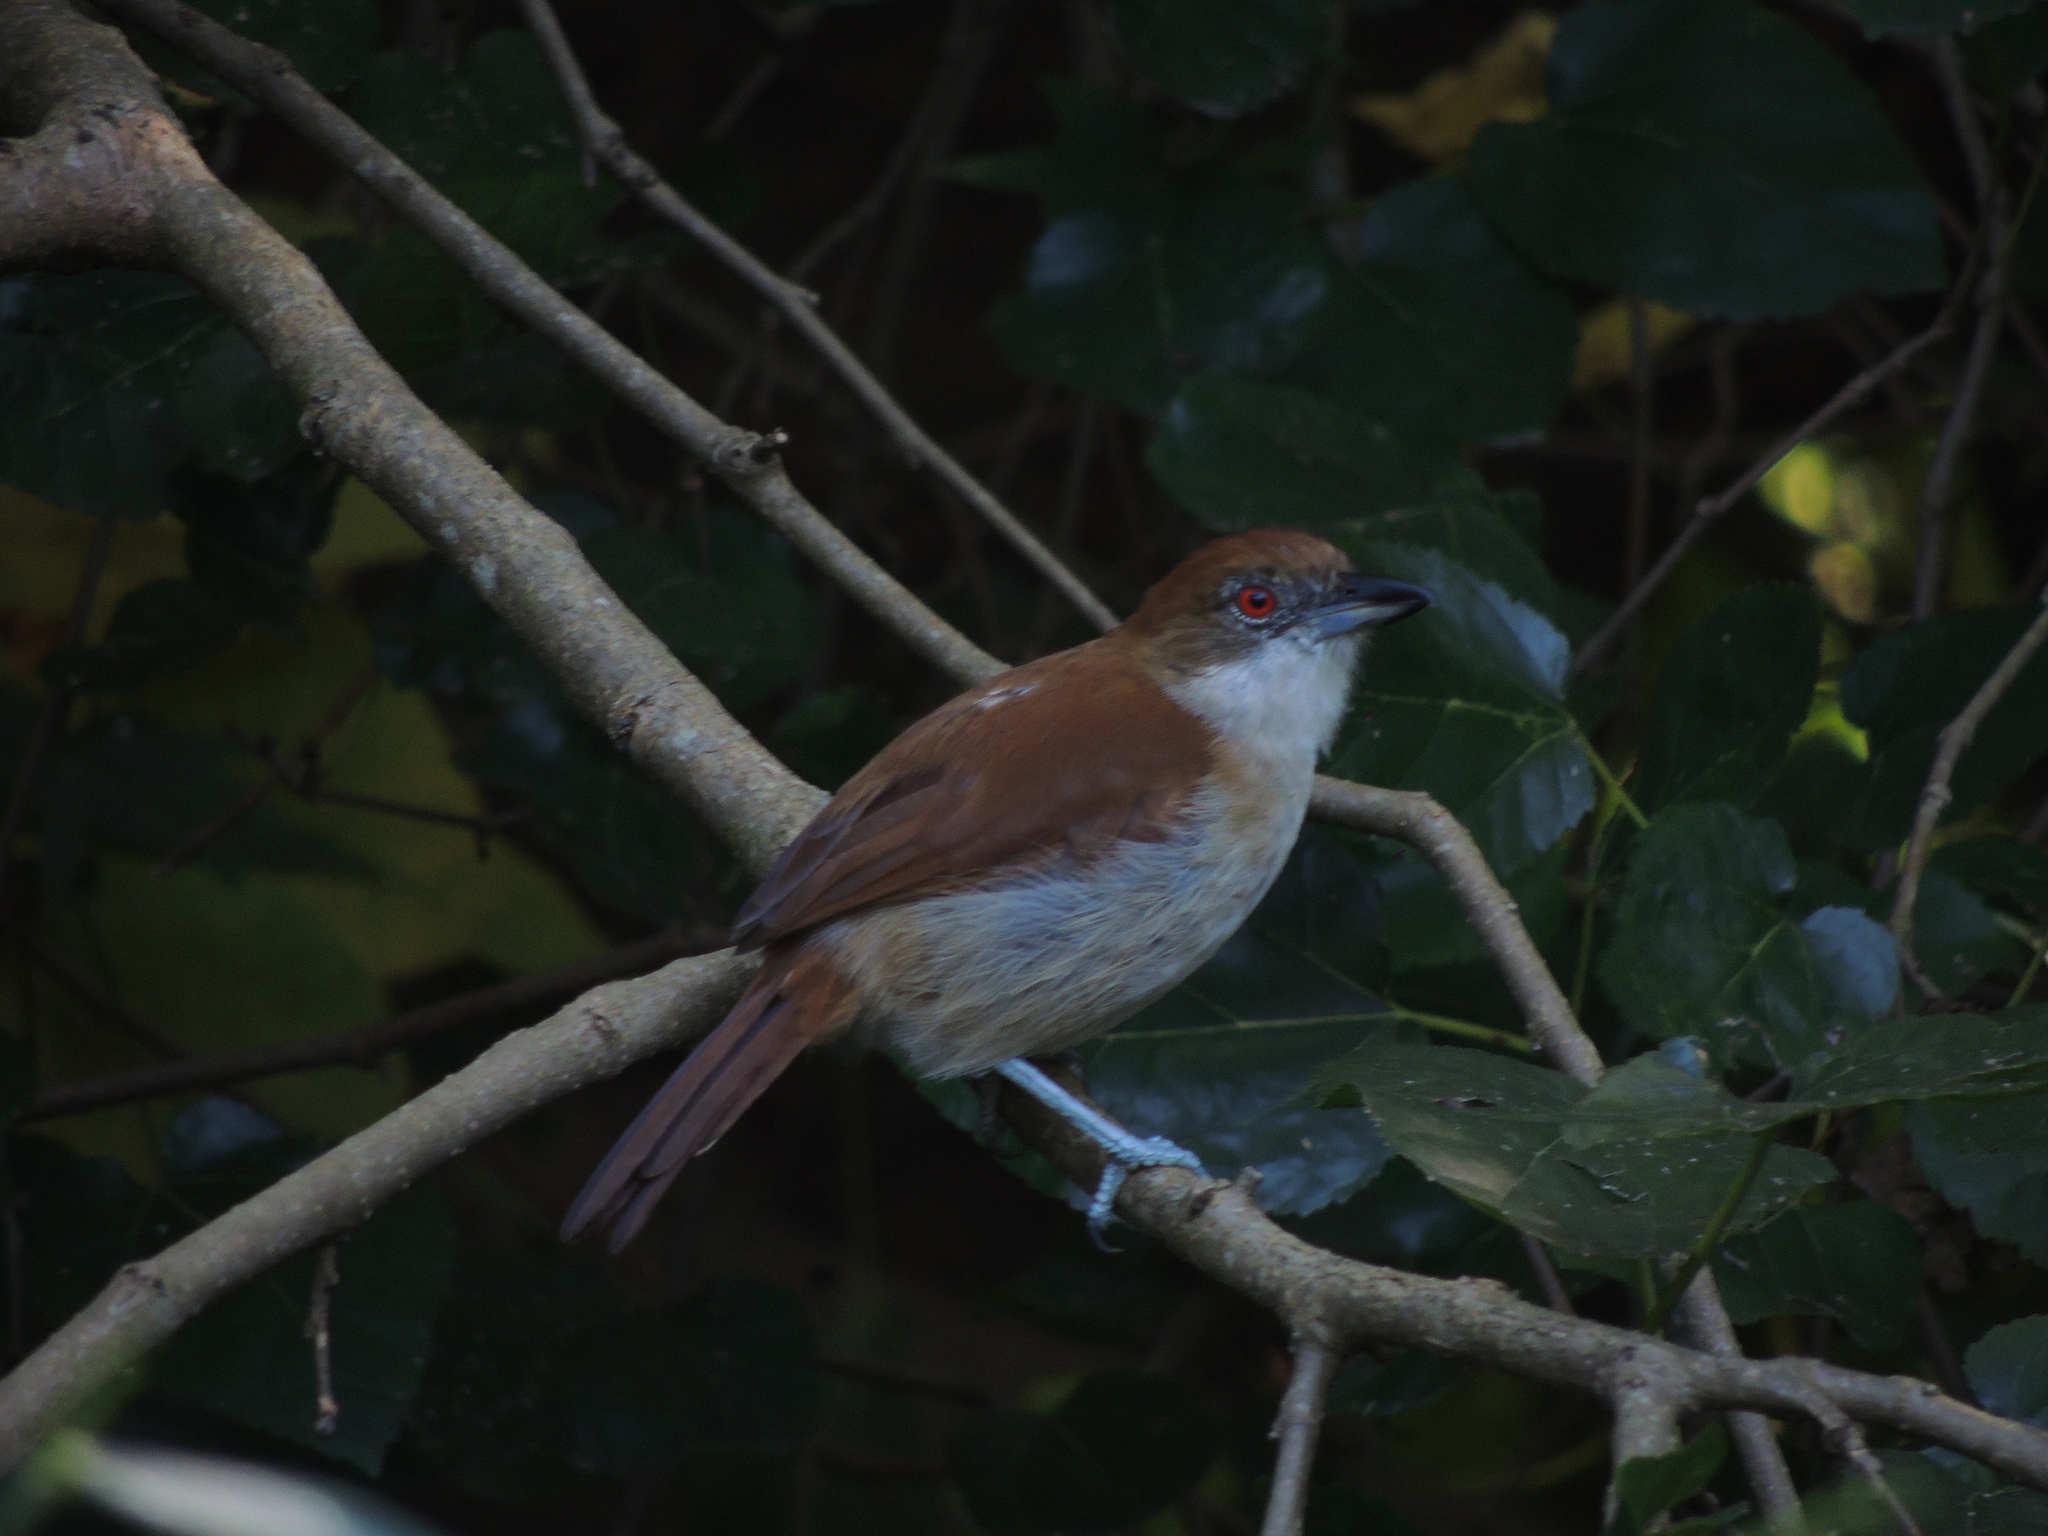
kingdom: Animalia
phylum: Chordata
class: Aves
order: Passeriformes
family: Thamnophilidae
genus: Taraba
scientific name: Taraba major
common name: Great antshrike
